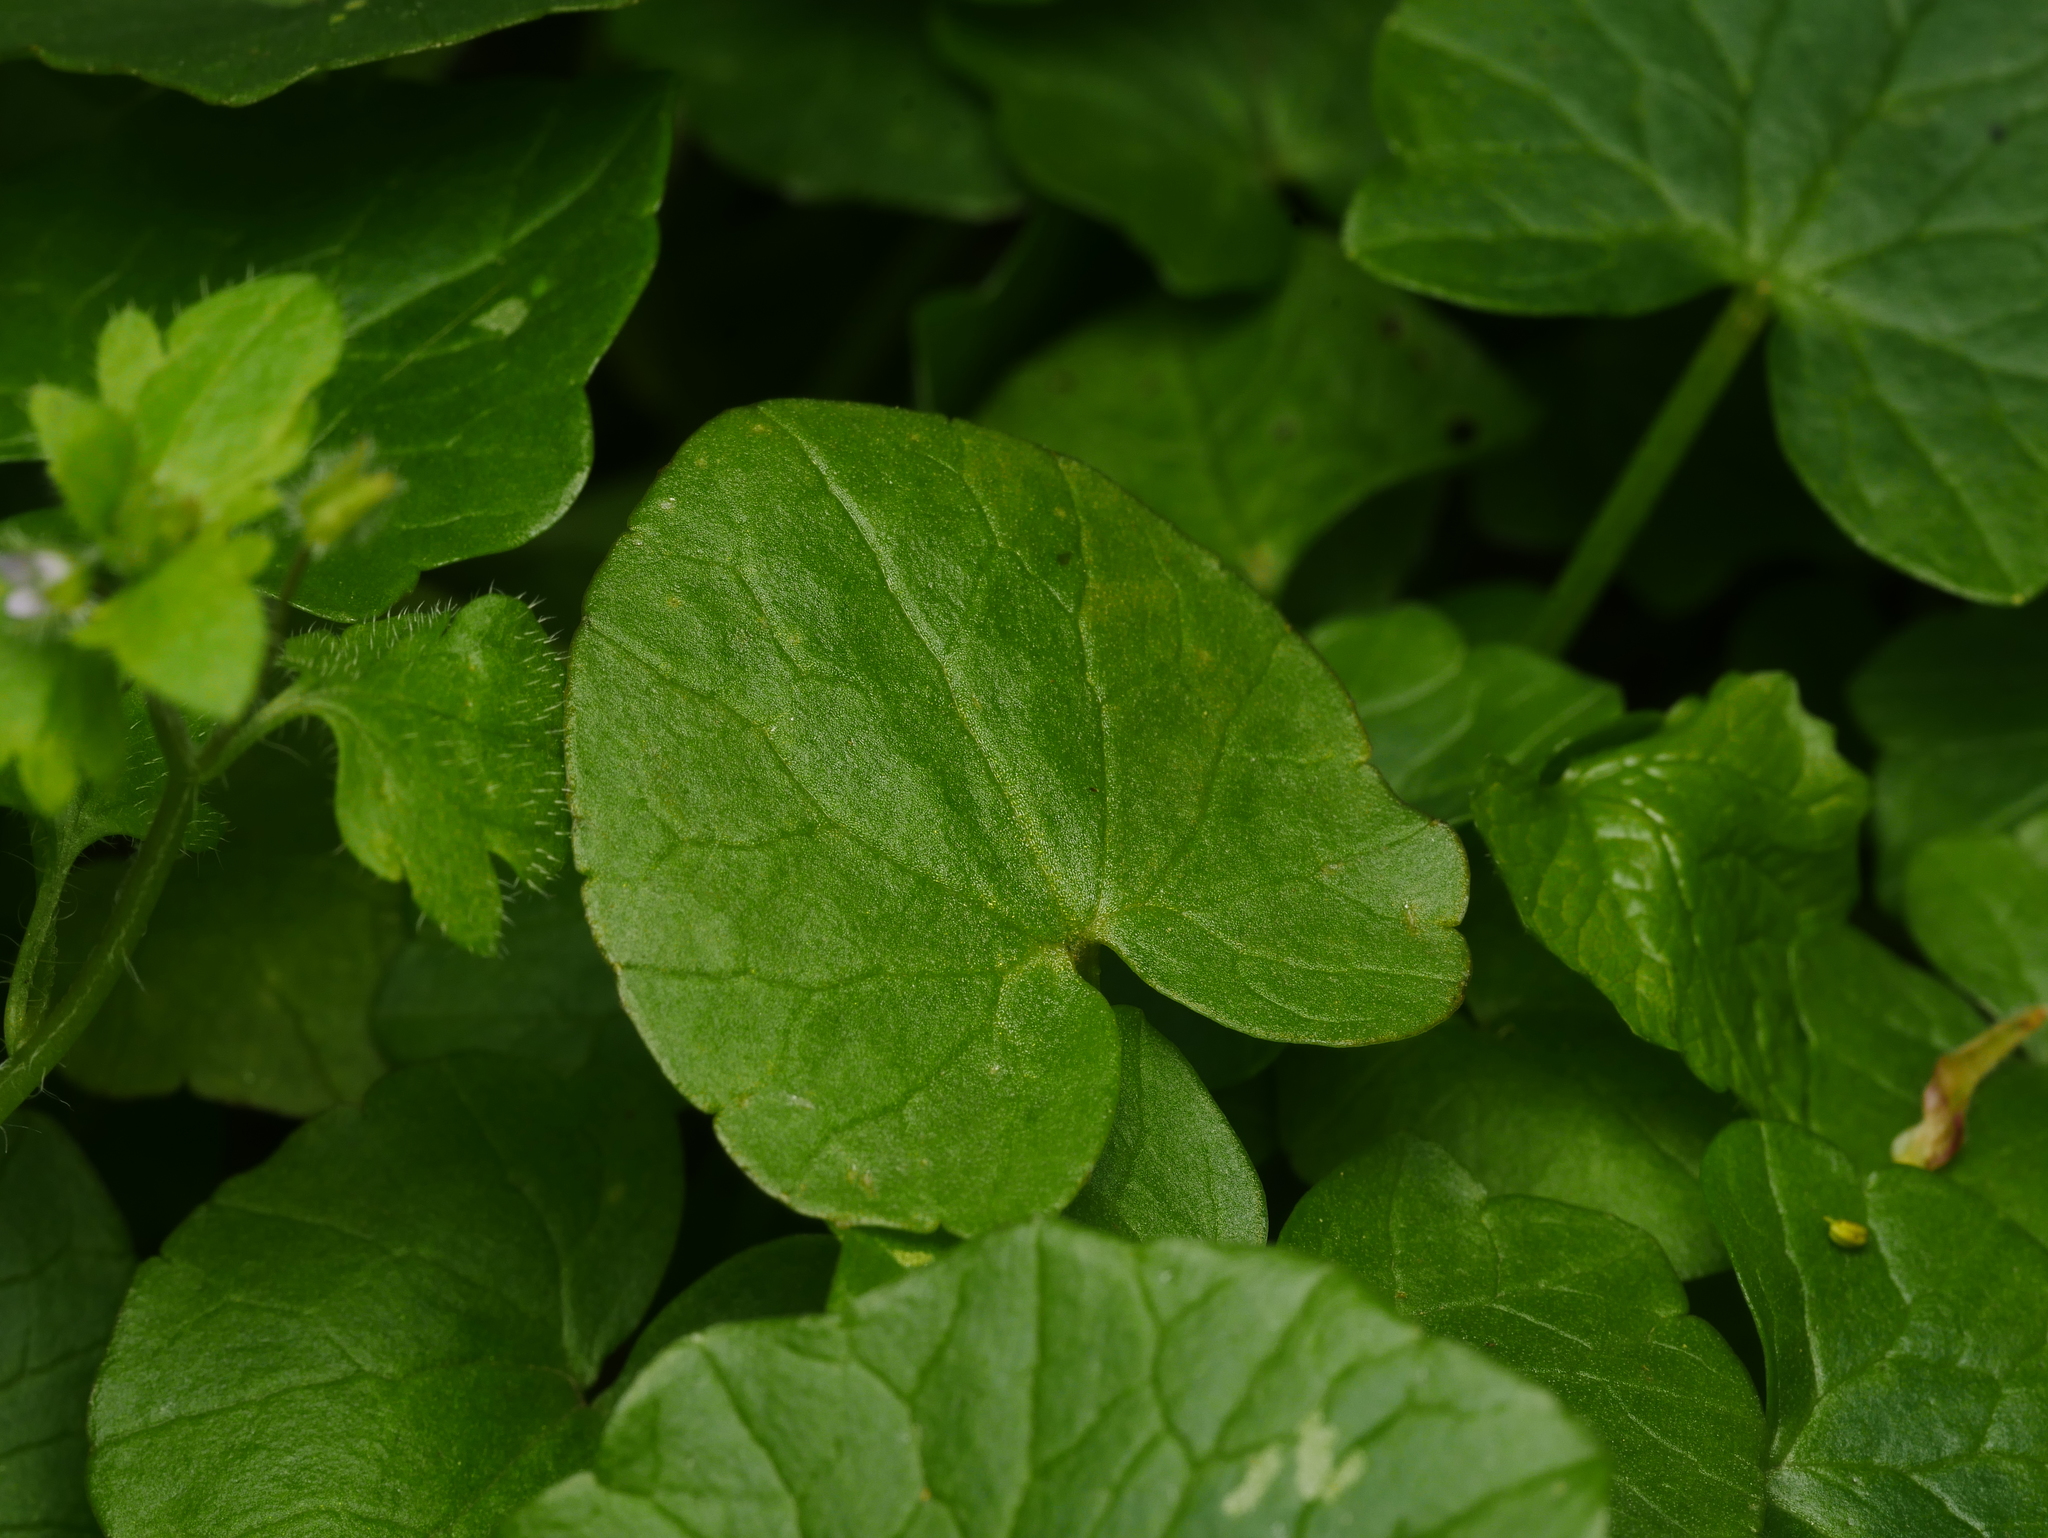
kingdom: Plantae
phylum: Tracheophyta
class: Magnoliopsida
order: Ranunculales
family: Ranunculaceae
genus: Ficaria
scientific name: Ficaria verna
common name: Lesser celandine
